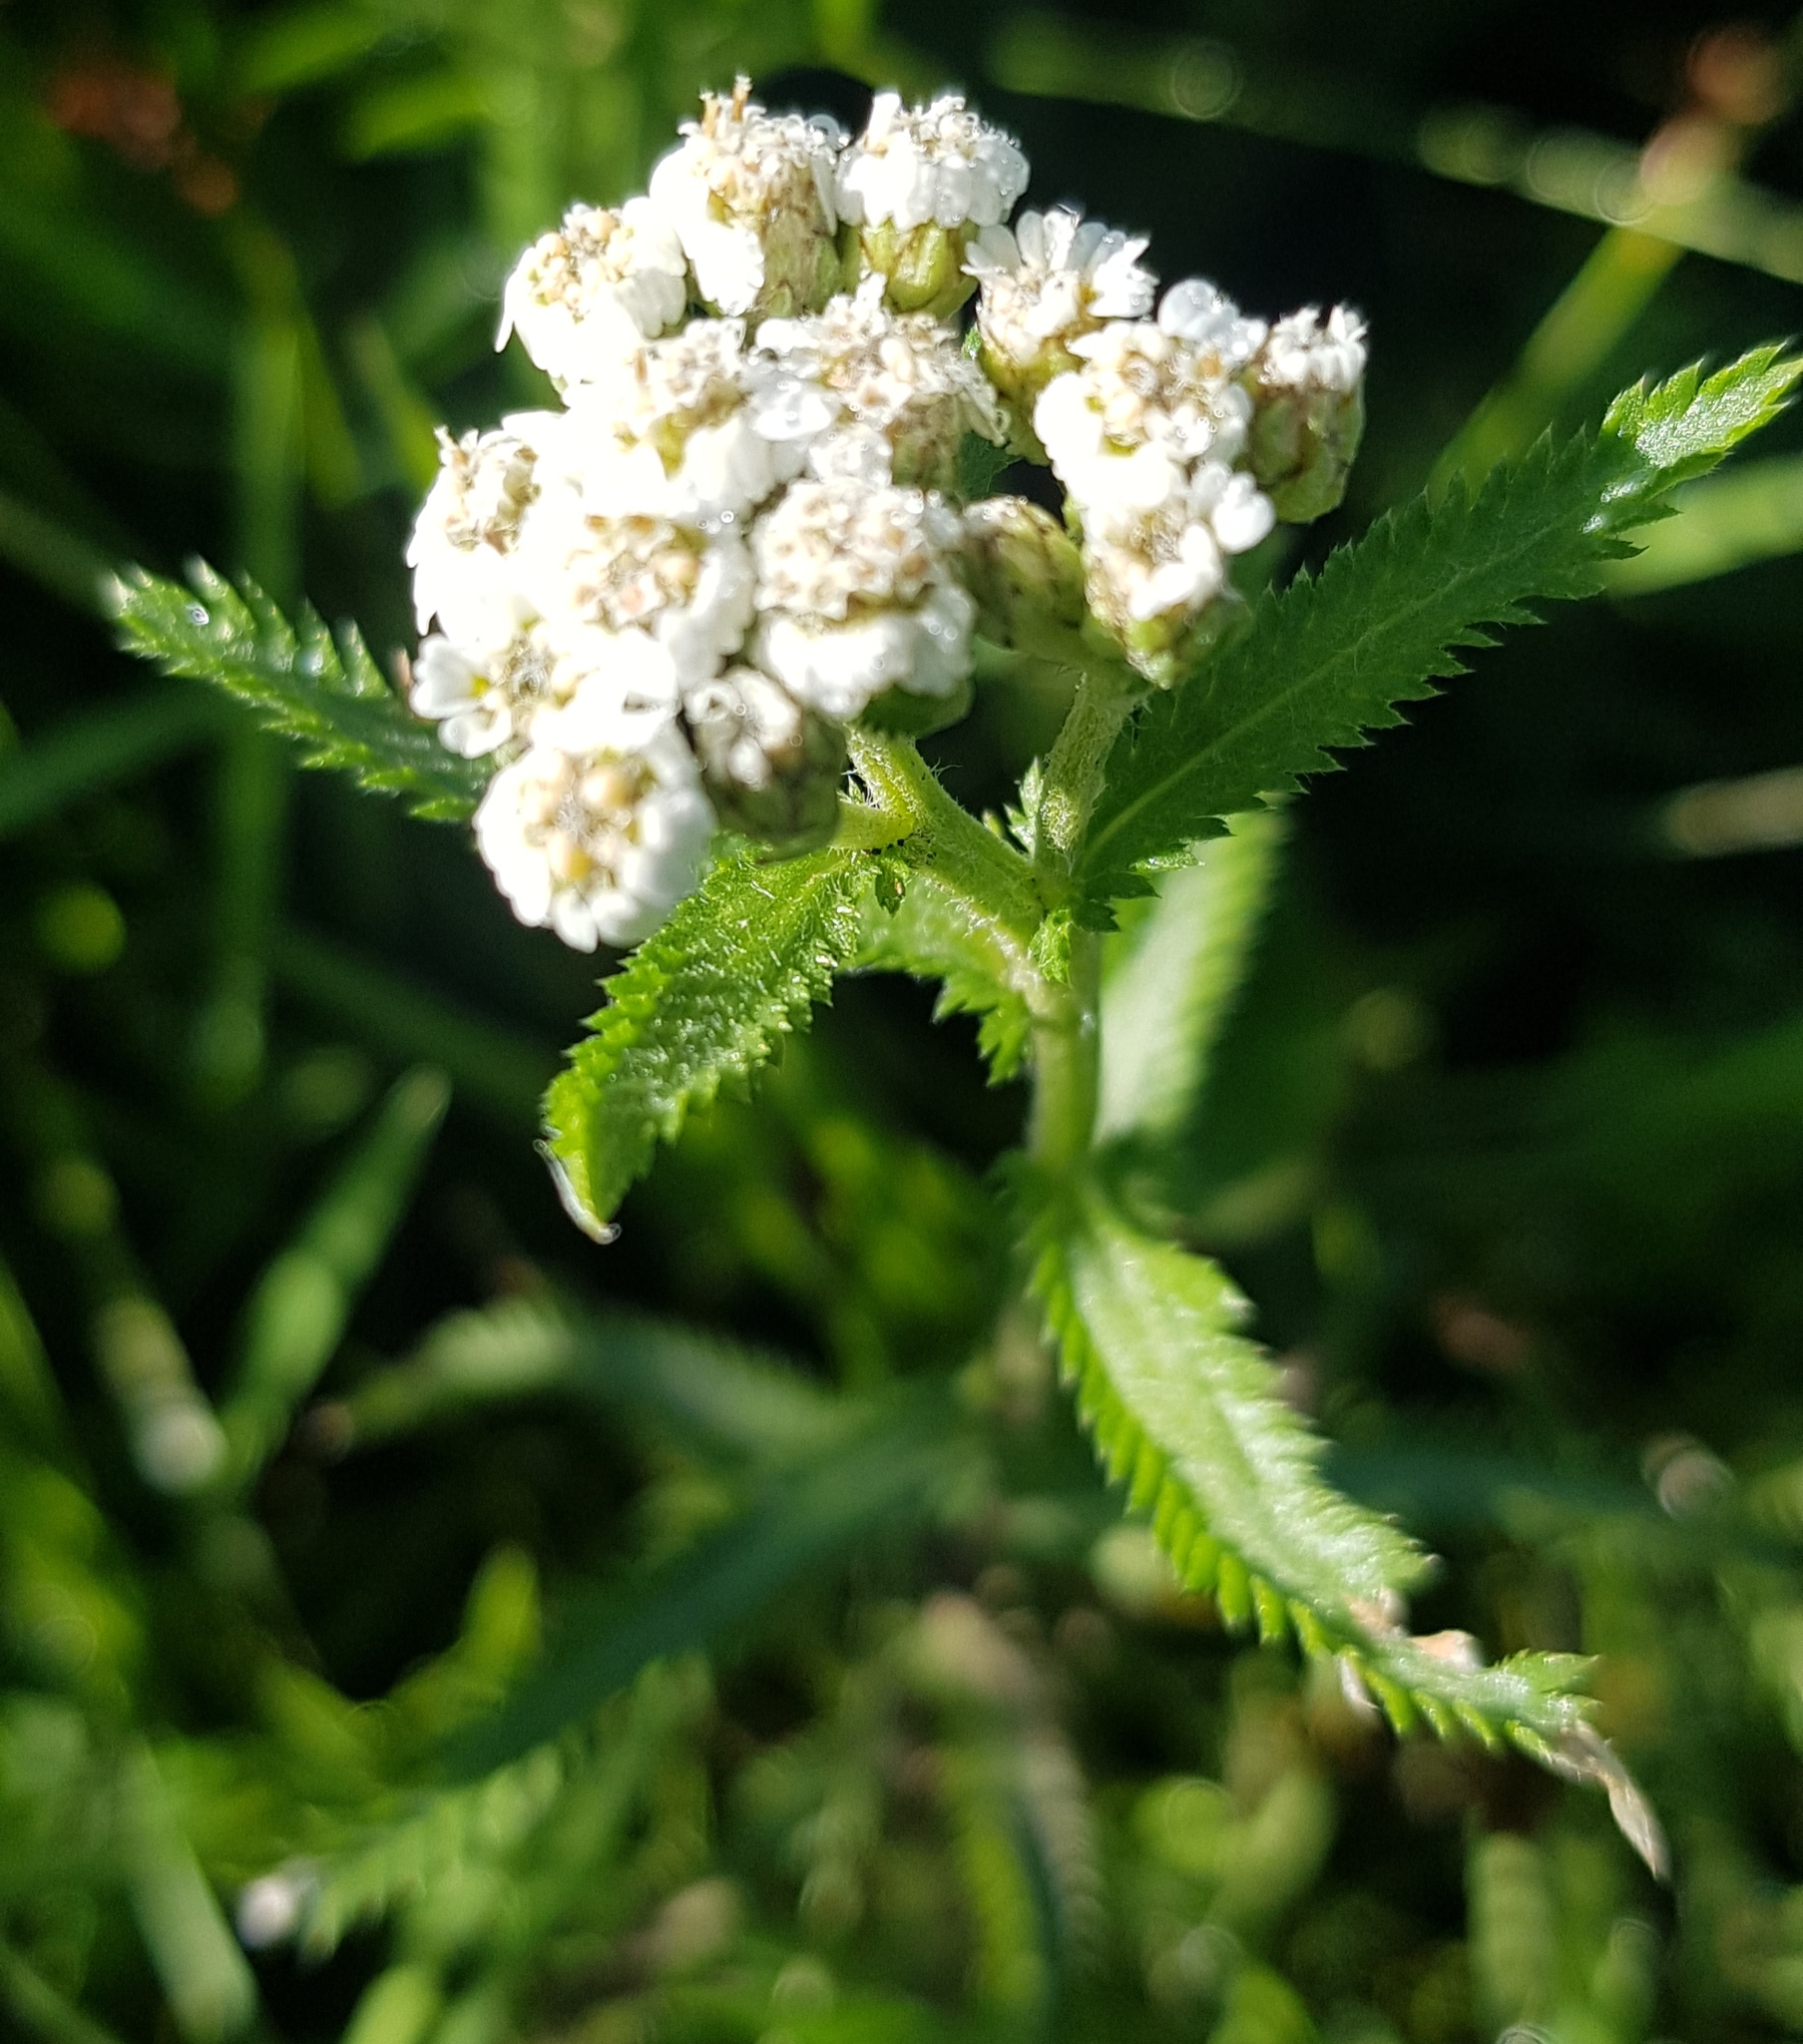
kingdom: Plantae
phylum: Tracheophyta
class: Magnoliopsida
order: Asterales
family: Asteraceae
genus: Achillea
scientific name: Achillea asiatica
